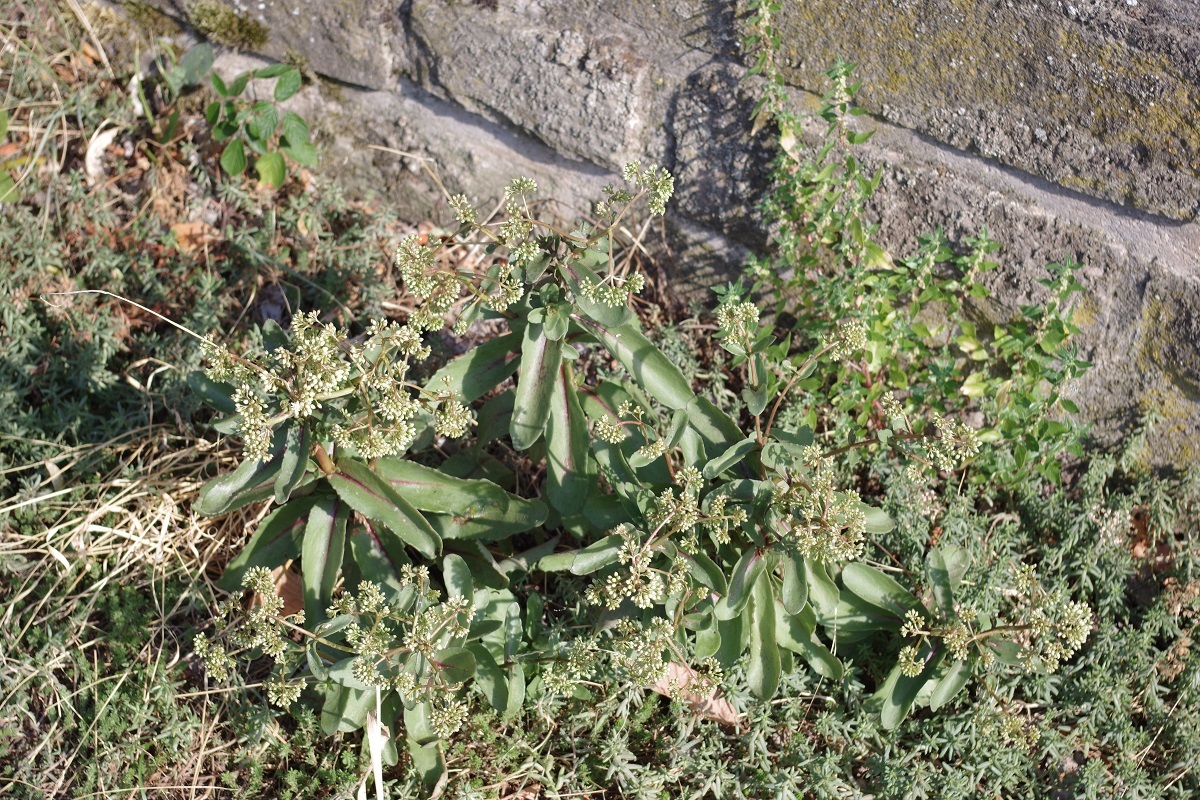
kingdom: Plantae
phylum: Tracheophyta
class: Magnoliopsida
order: Saxifragales
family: Crassulaceae
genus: Hylotelephium
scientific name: Hylotelephium maximum
